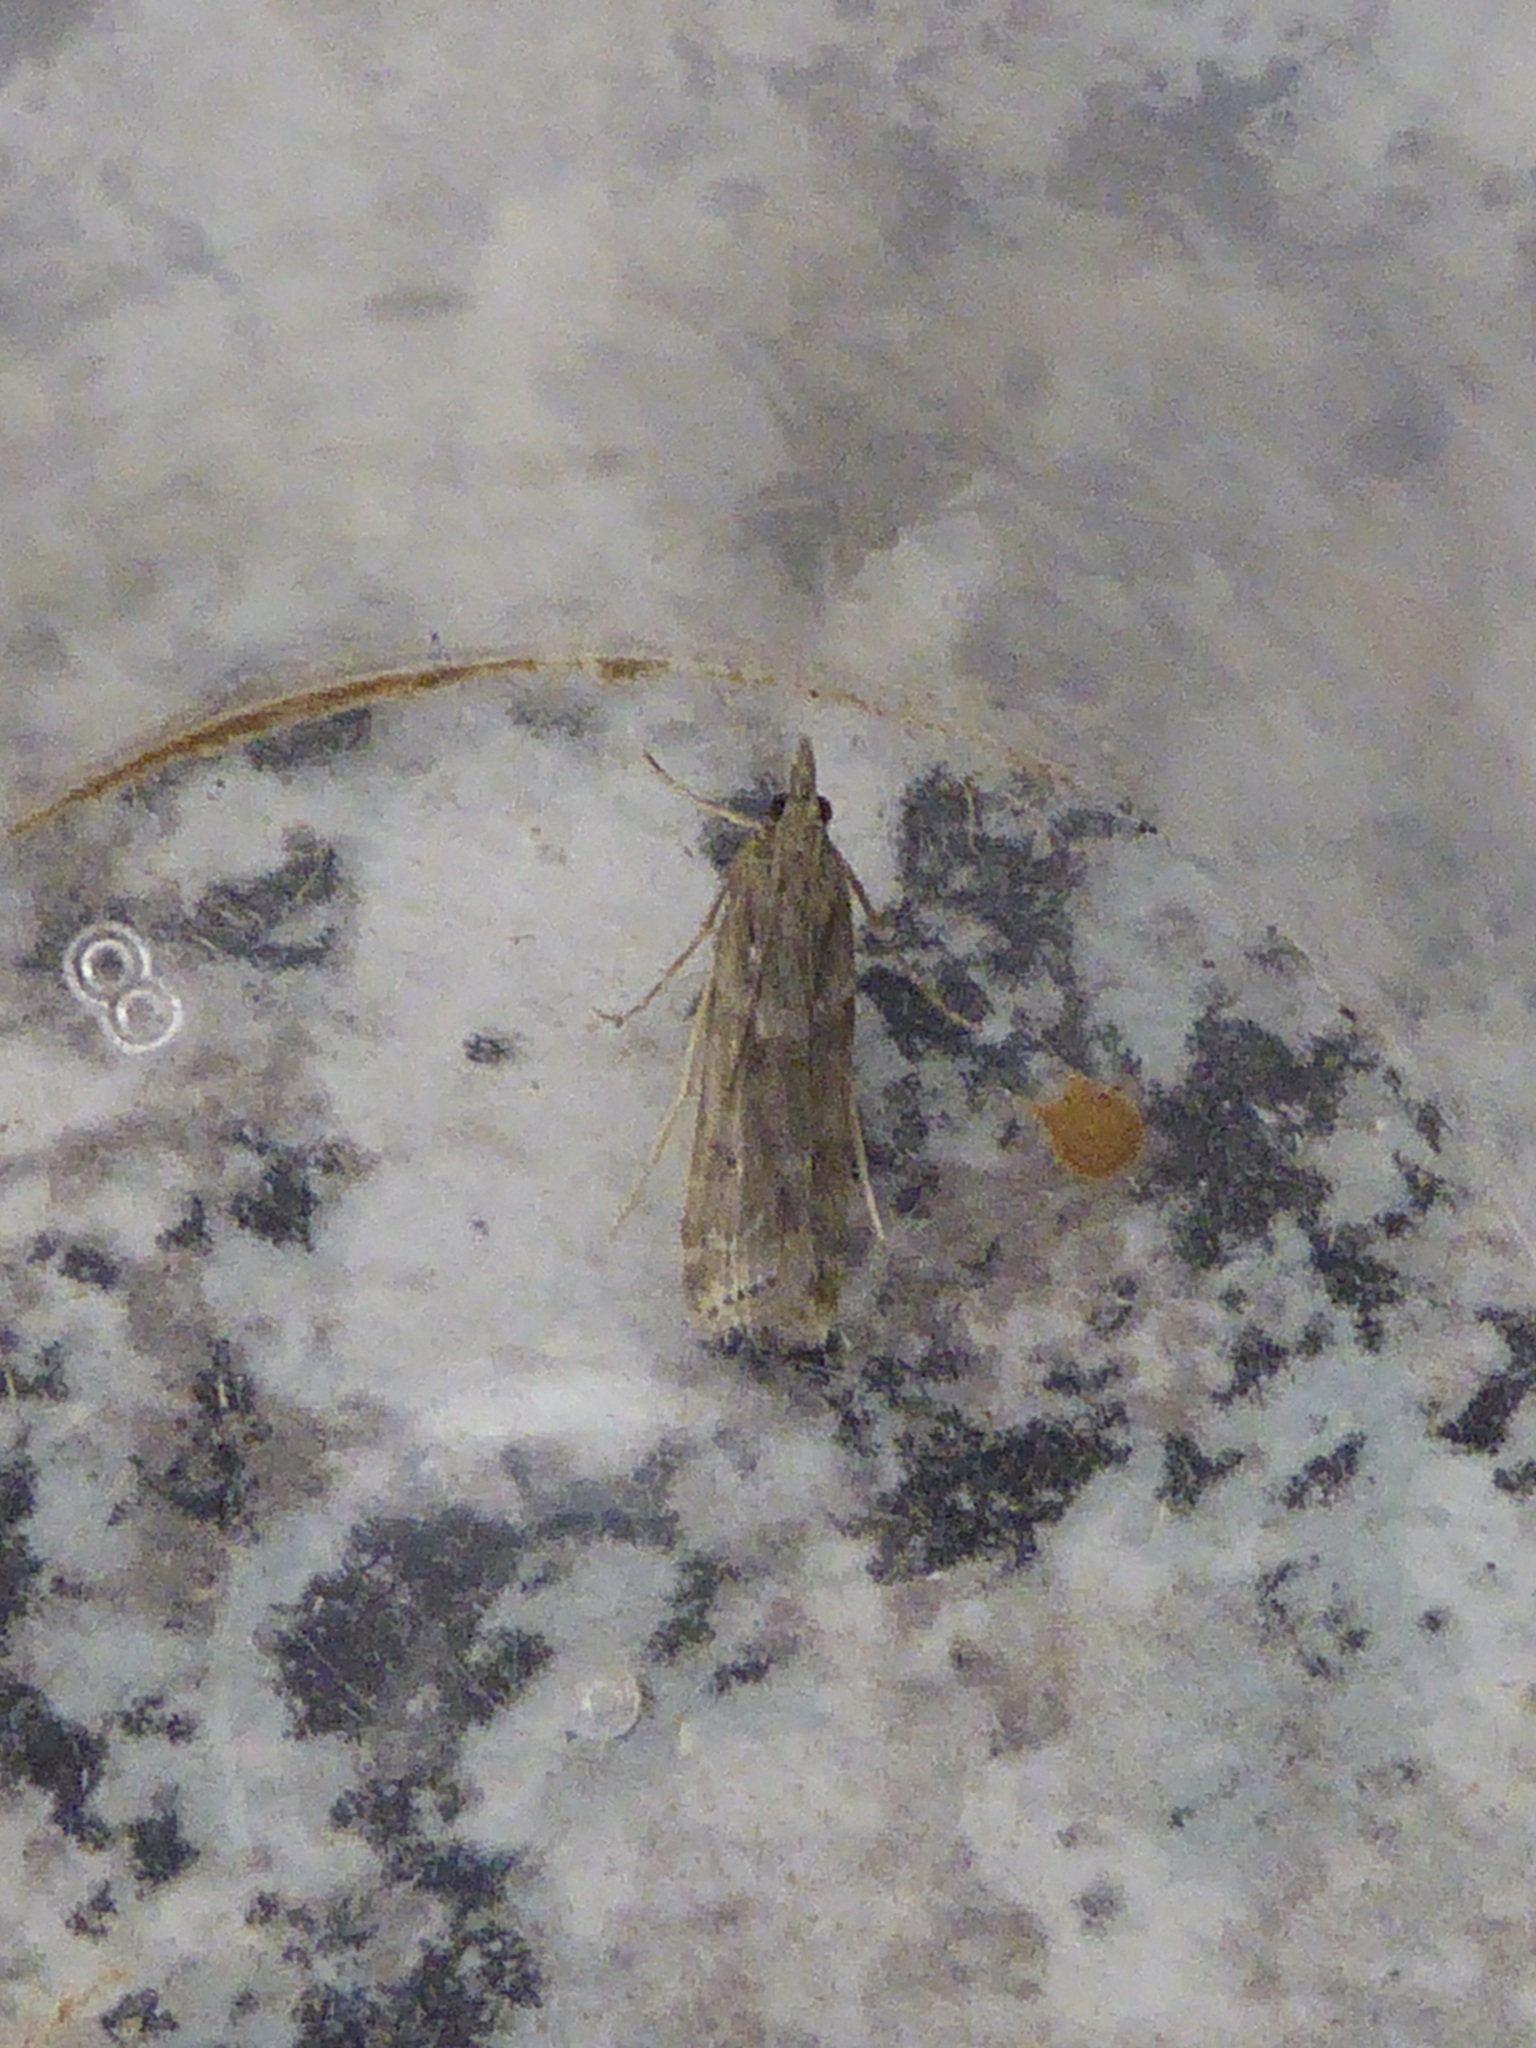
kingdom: Animalia
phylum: Arthropoda
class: Insecta
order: Lepidoptera
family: Crambidae
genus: Eudonia
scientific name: Eudonia angustea
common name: Narrow-winged grey
